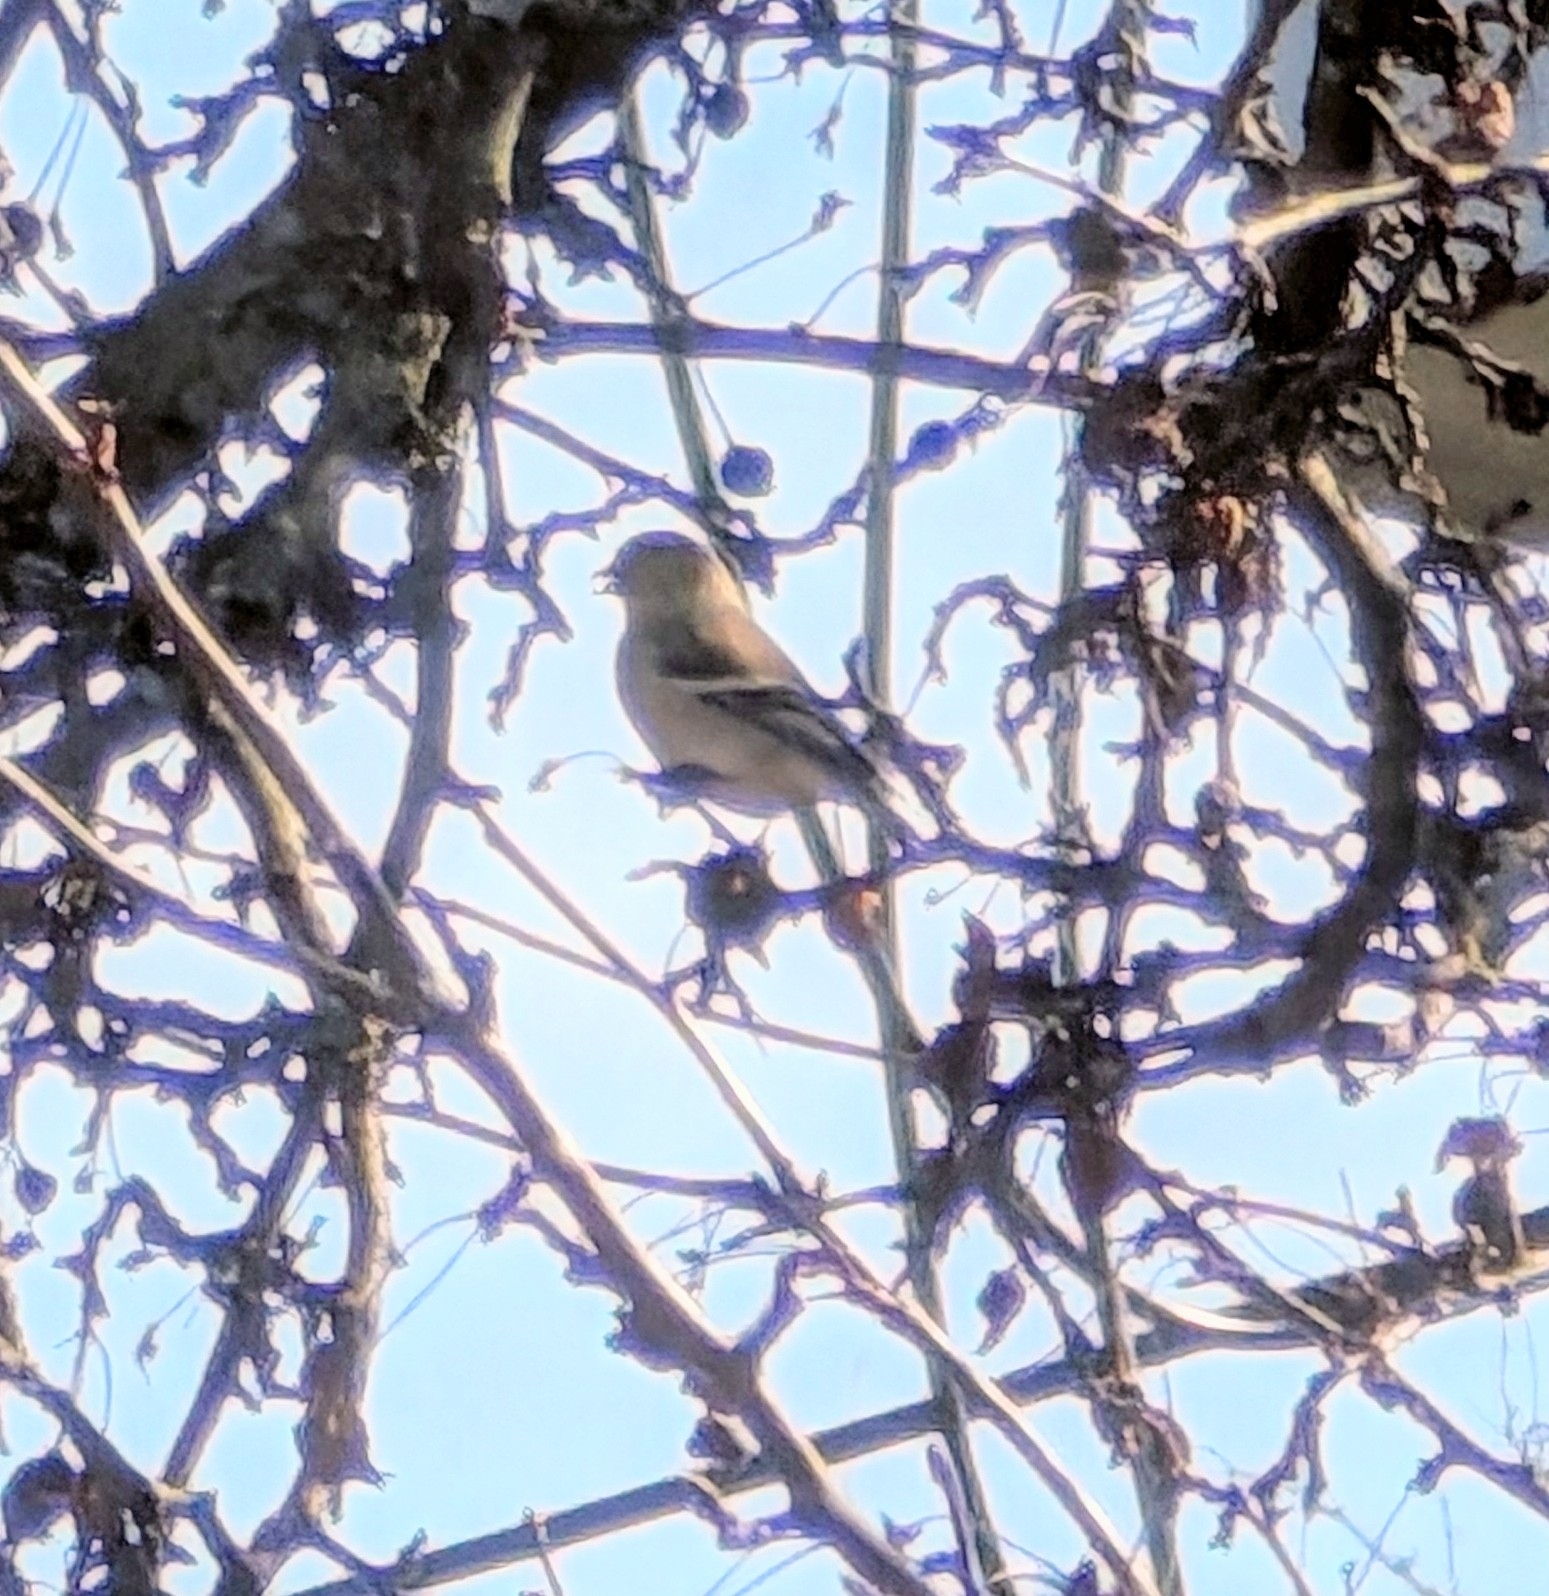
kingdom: Animalia
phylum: Chordata
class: Aves
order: Passeriformes
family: Fringillidae
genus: Spinus
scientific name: Spinus tristis
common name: American goldfinch
